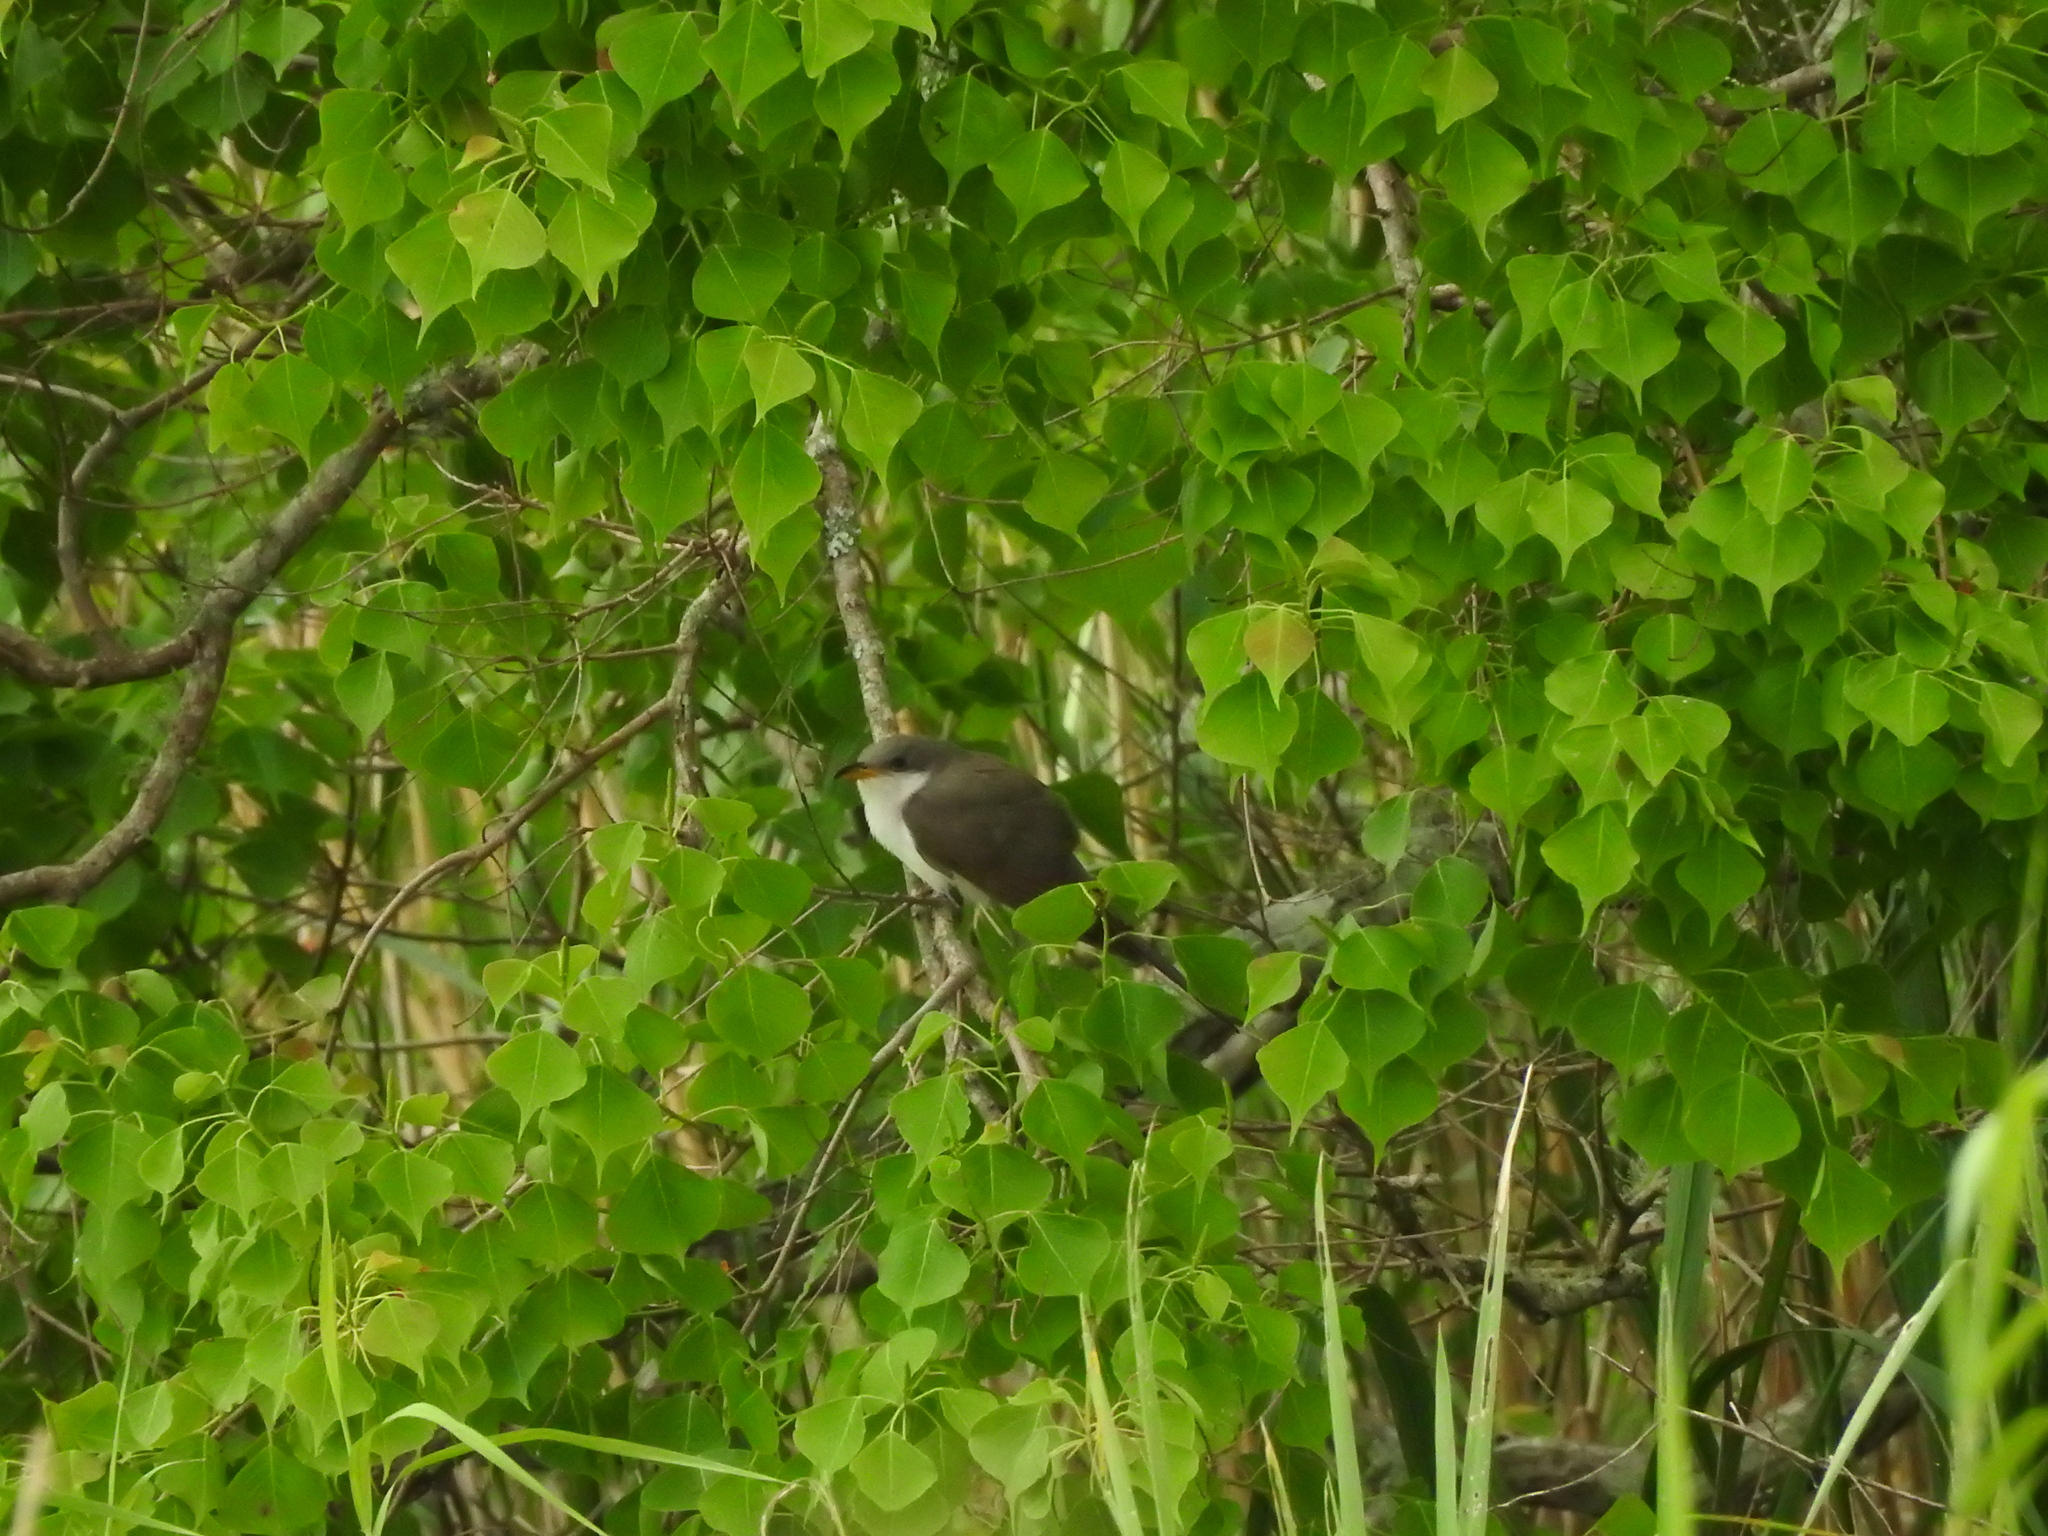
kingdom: Animalia
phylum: Chordata
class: Aves
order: Cuculiformes
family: Cuculidae
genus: Coccyzus
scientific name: Coccyzus americanus
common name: Yellow-billed cuckoo
